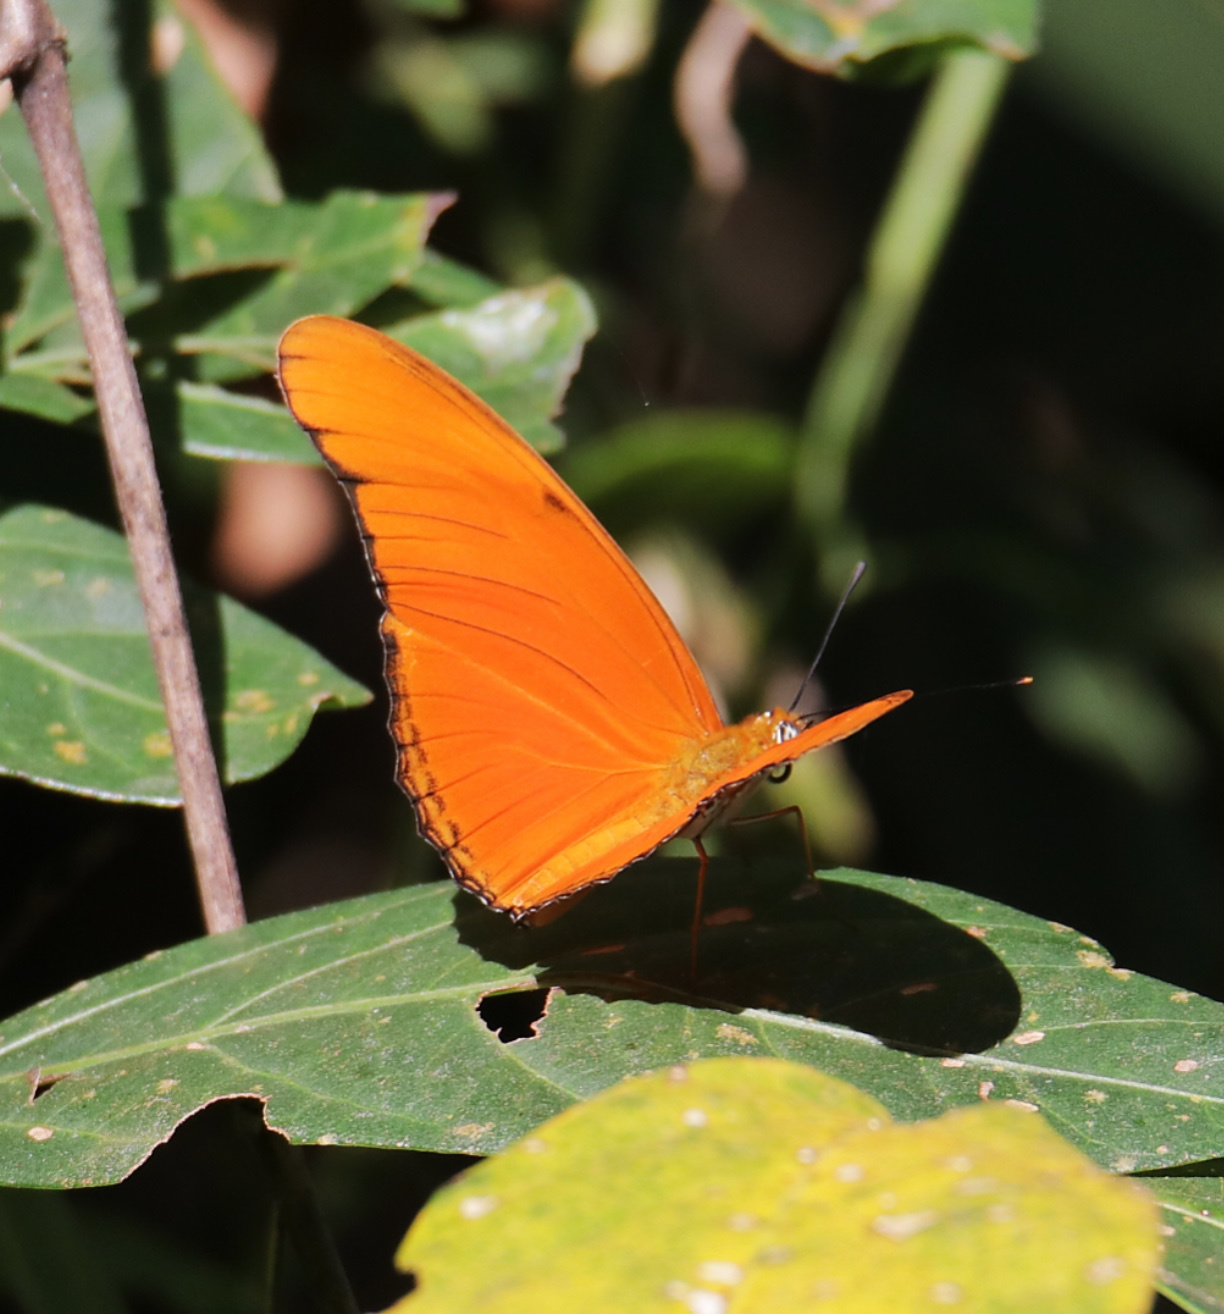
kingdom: Animalia
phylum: Arthropoda
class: Insecta
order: Lepidoptera
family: Nymphalidae
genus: Dryas
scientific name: Dryas iulia
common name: Flambeau
